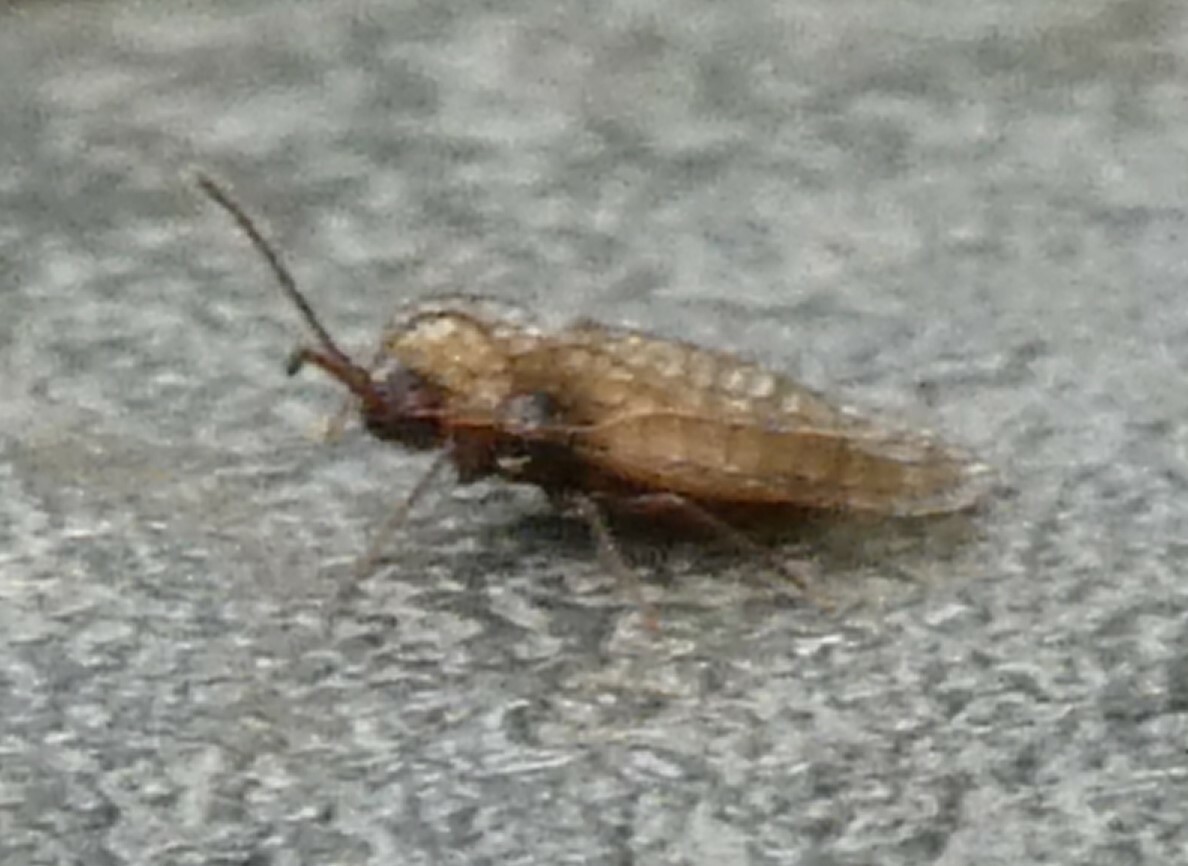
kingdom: Animalia
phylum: Arthropoda
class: Insecta
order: Hemiptera
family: Tingidae
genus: Derephysia
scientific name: Derephysia foliacea
